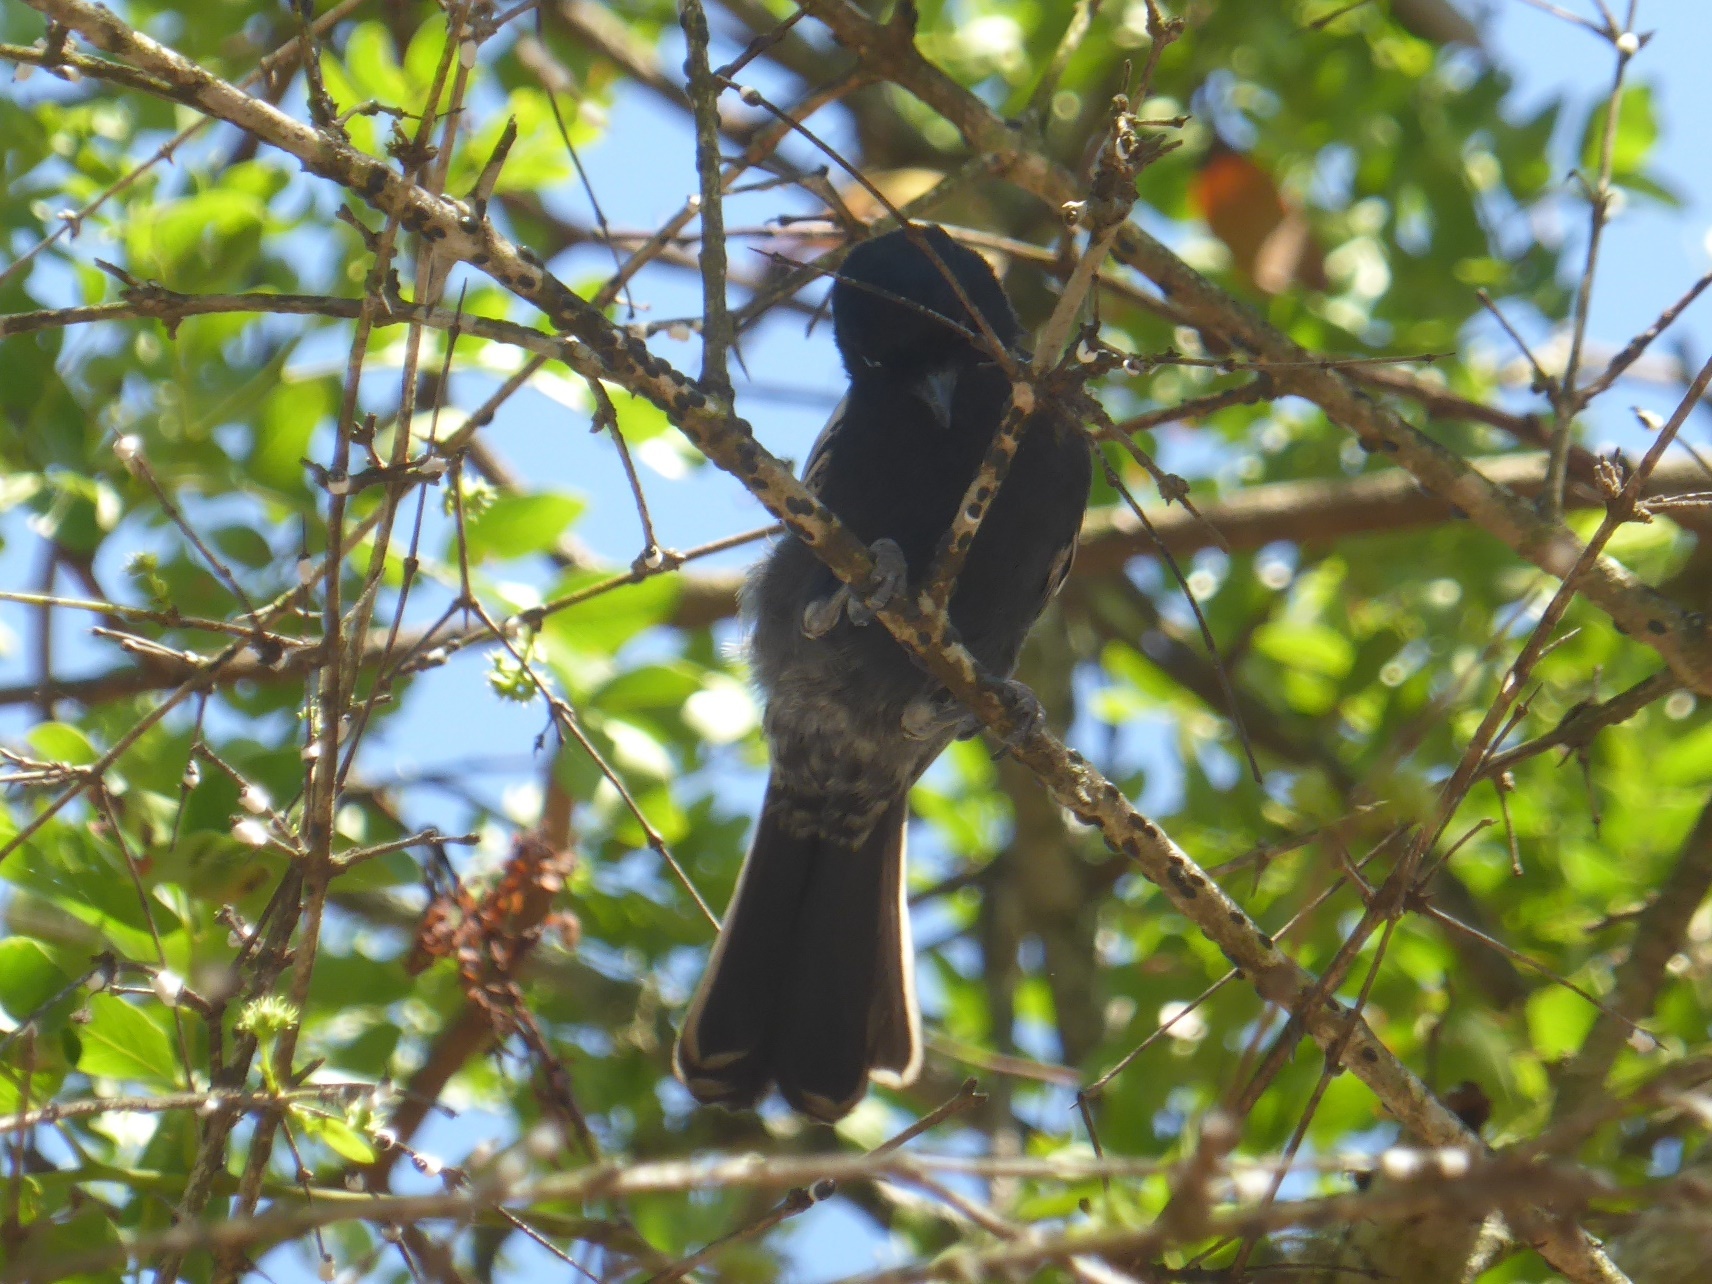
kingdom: Animalia
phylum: Chordata
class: Aves
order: Passeriformes
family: Paridae
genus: Parus
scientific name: Parus niger
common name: Southern black tit
